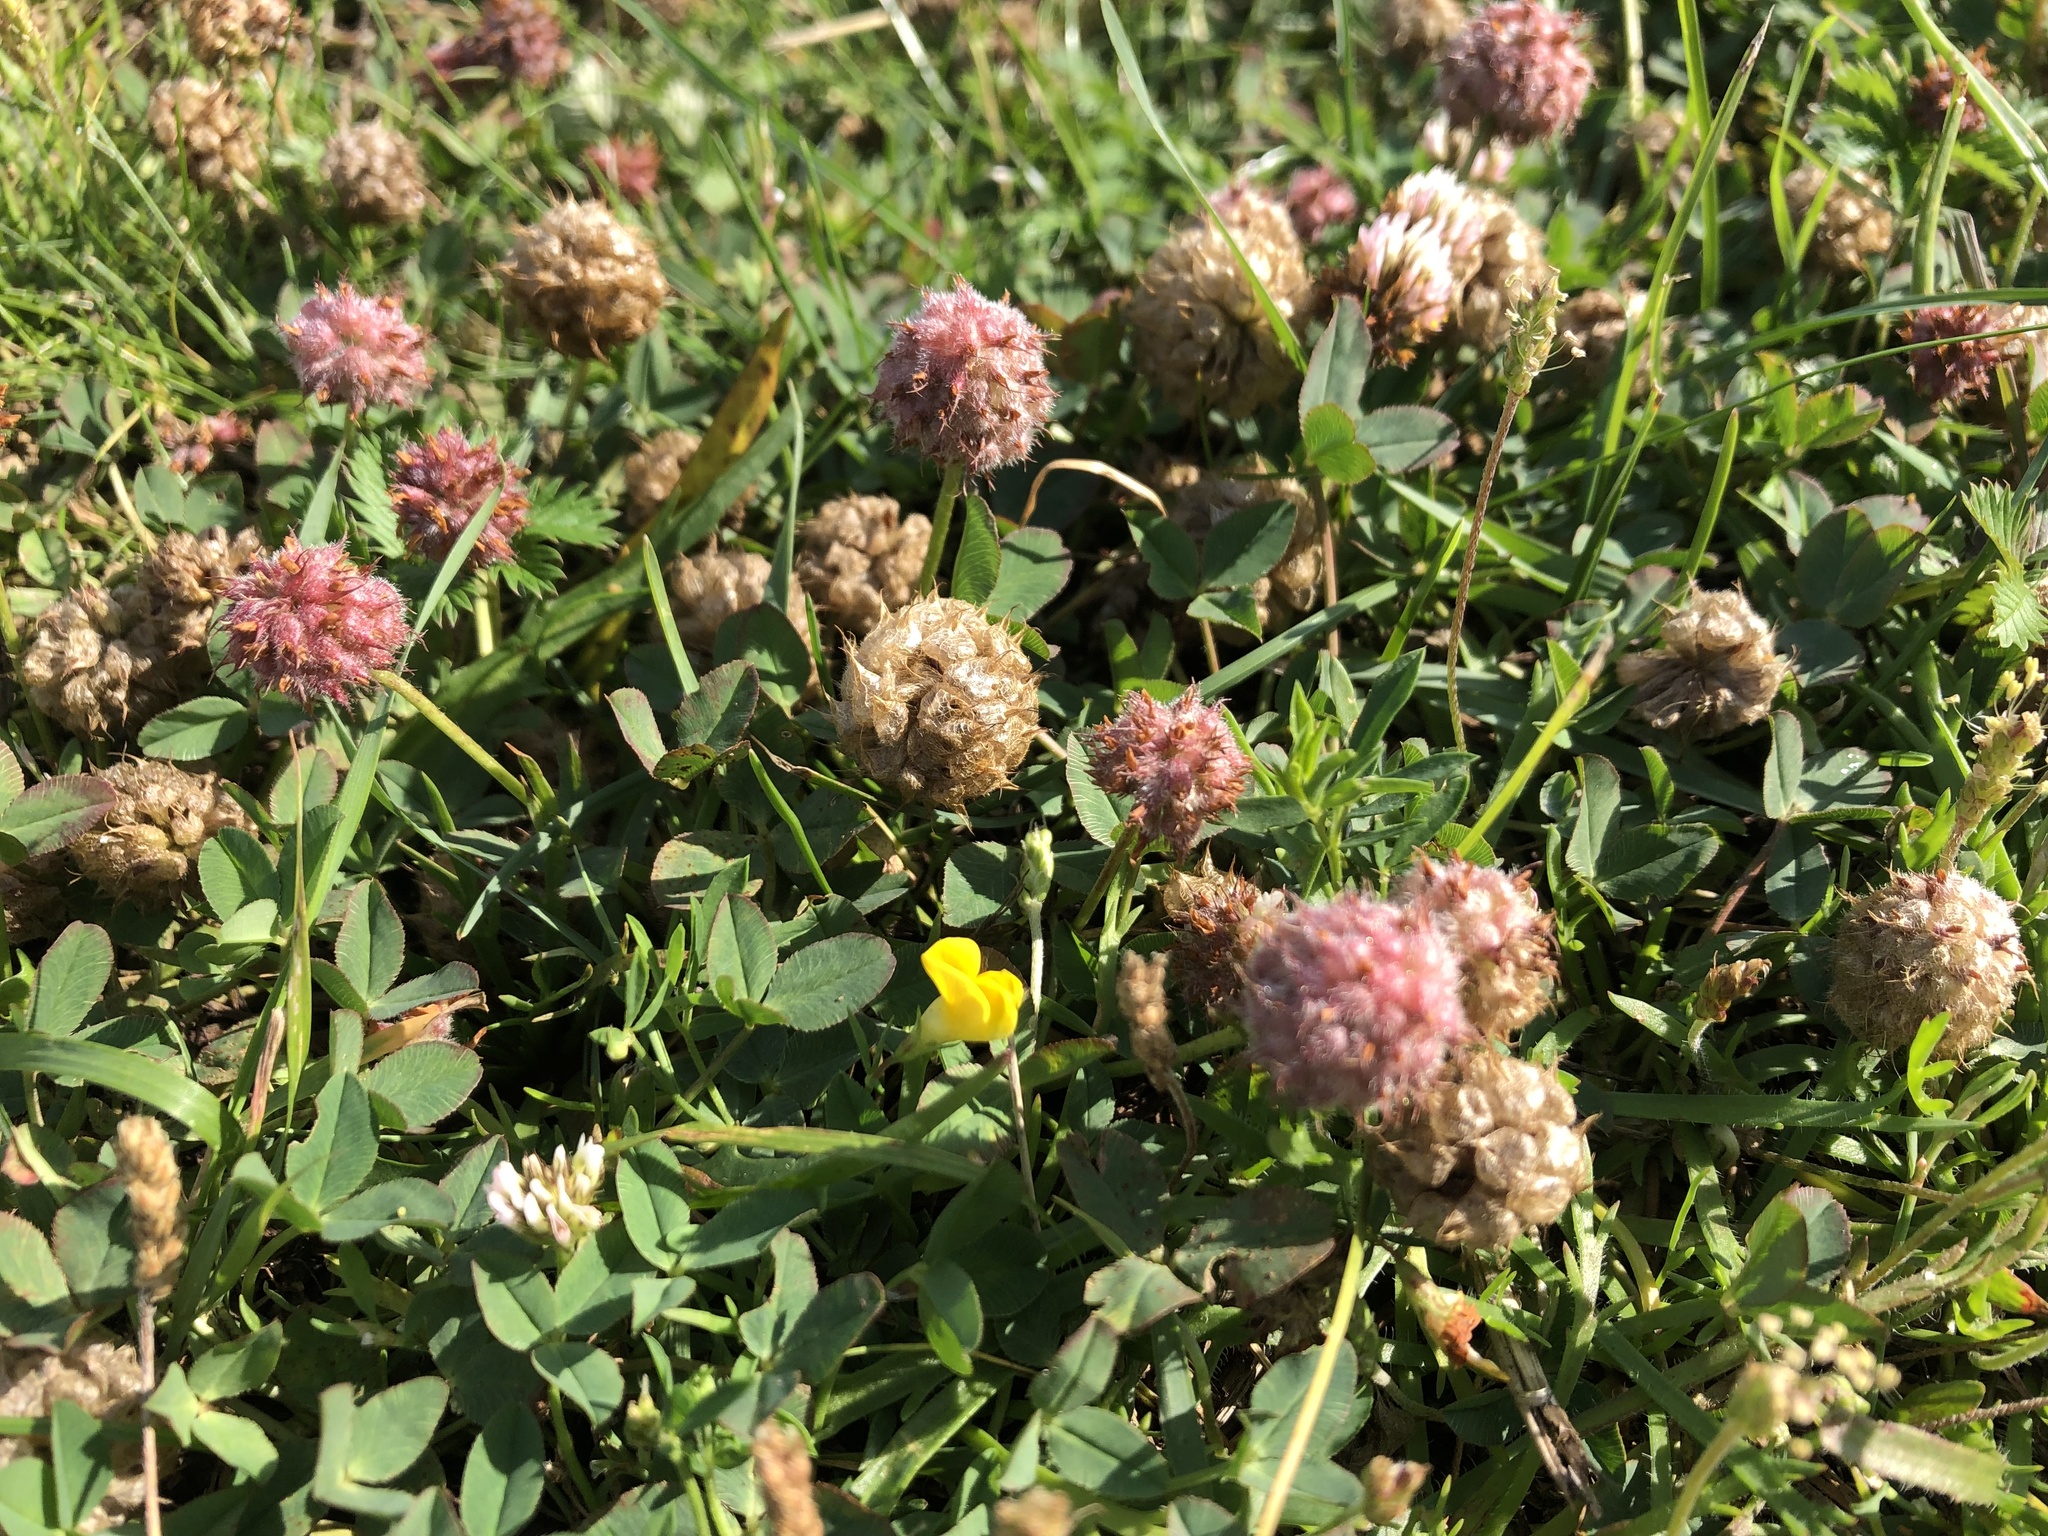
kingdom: Plantae
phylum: Tracheophyta
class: Magnoliopsida
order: Fabales
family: Fabaceae
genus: Trifolium
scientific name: Trifolium fragiferum
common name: Strawberry clover
